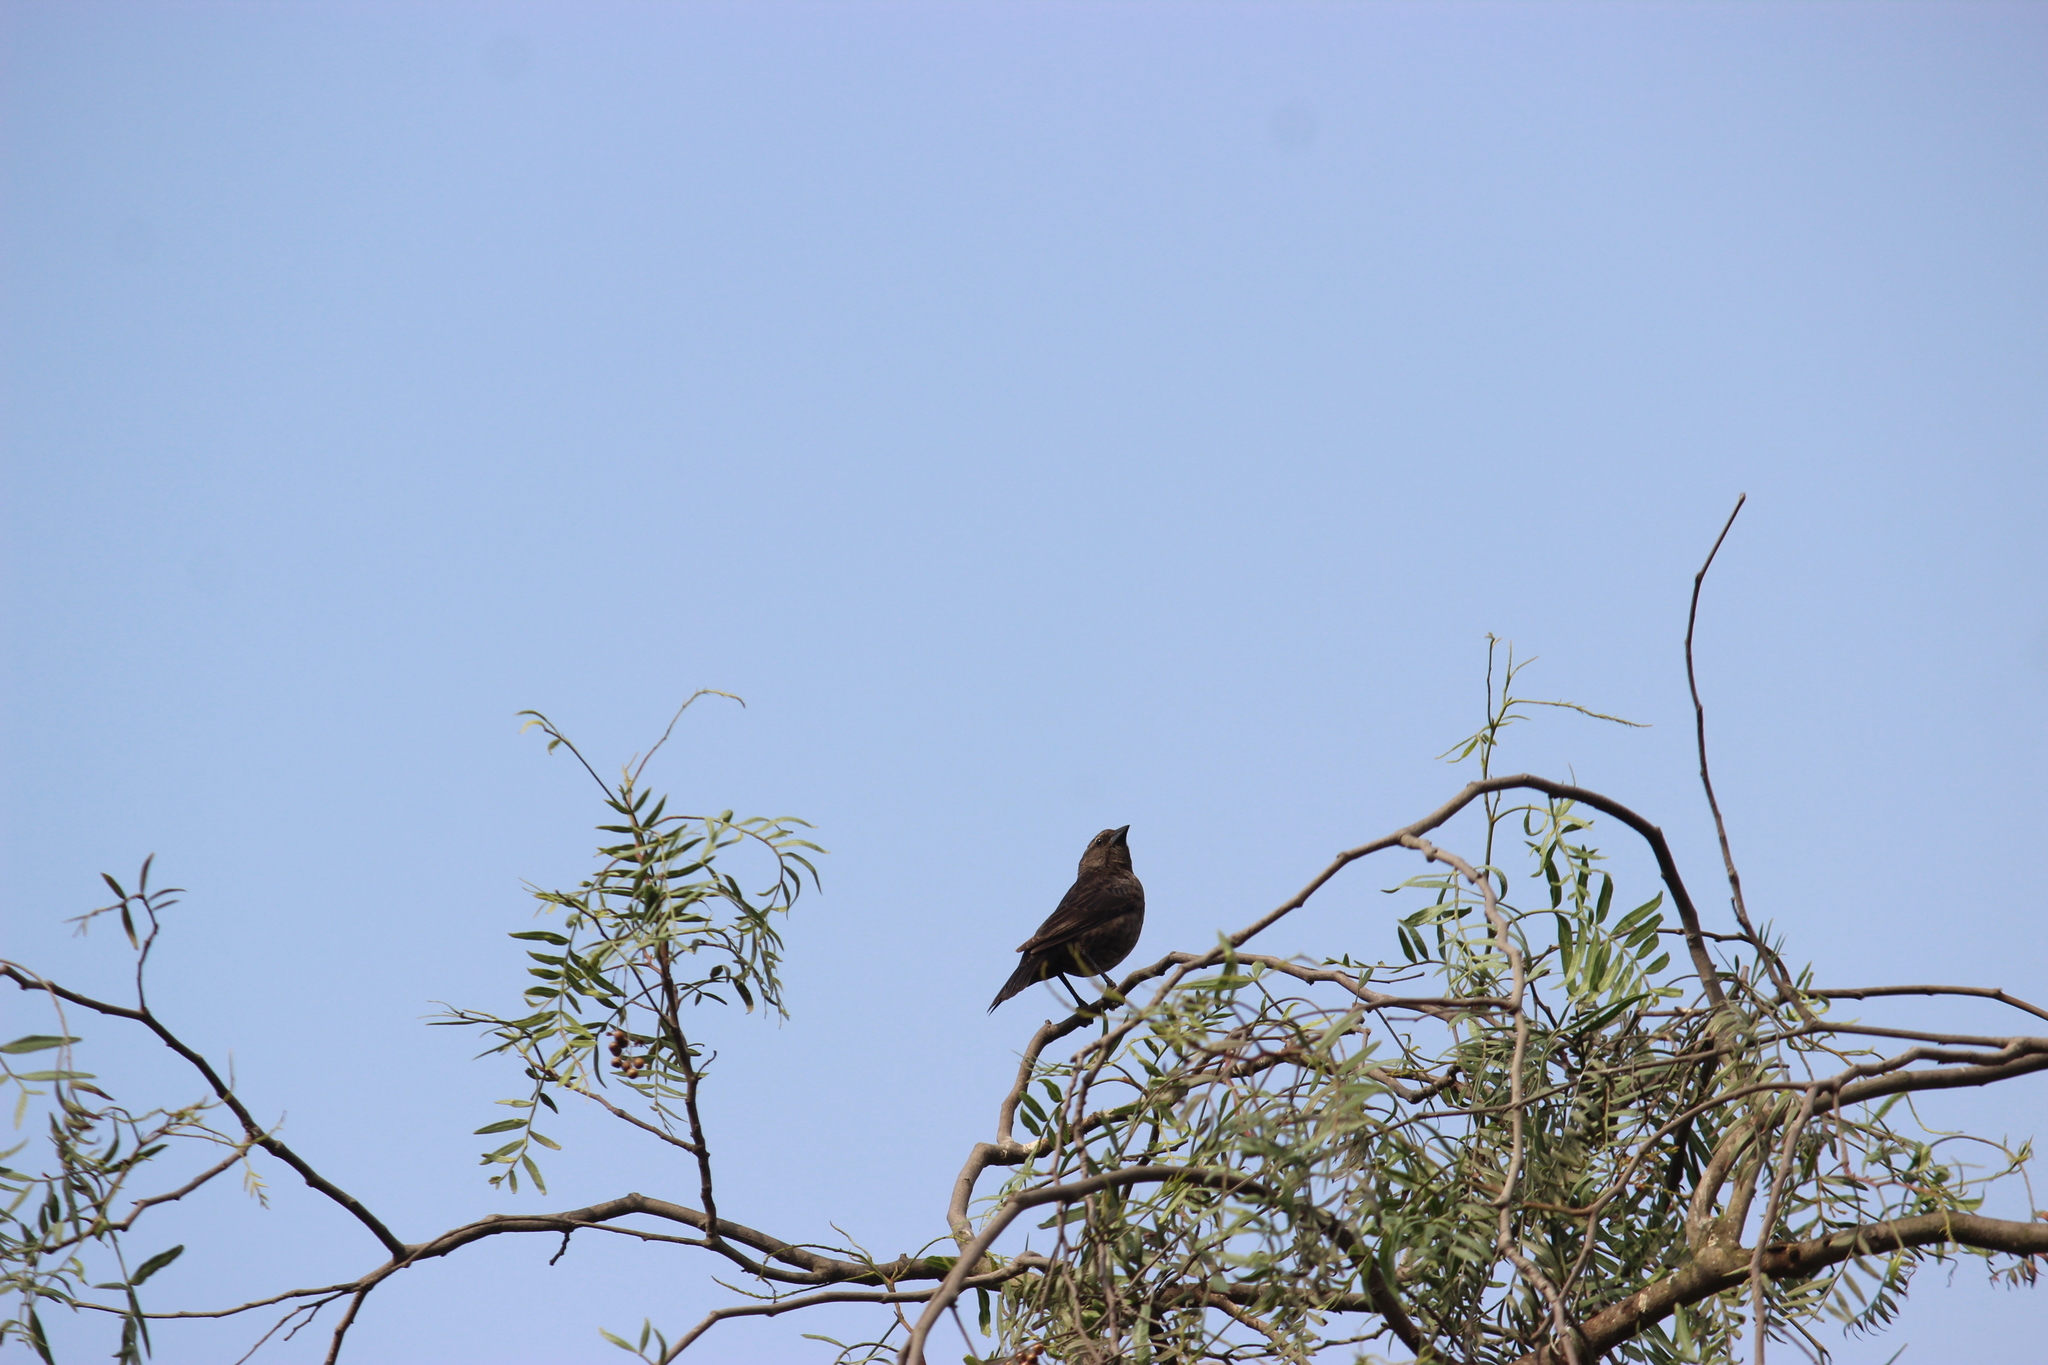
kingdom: Animalia
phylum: Chordata
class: Aves
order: Passeriformes
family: Icteridae
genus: Molothrus
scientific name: Molothrus bonariensis
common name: Shiny cowbird
